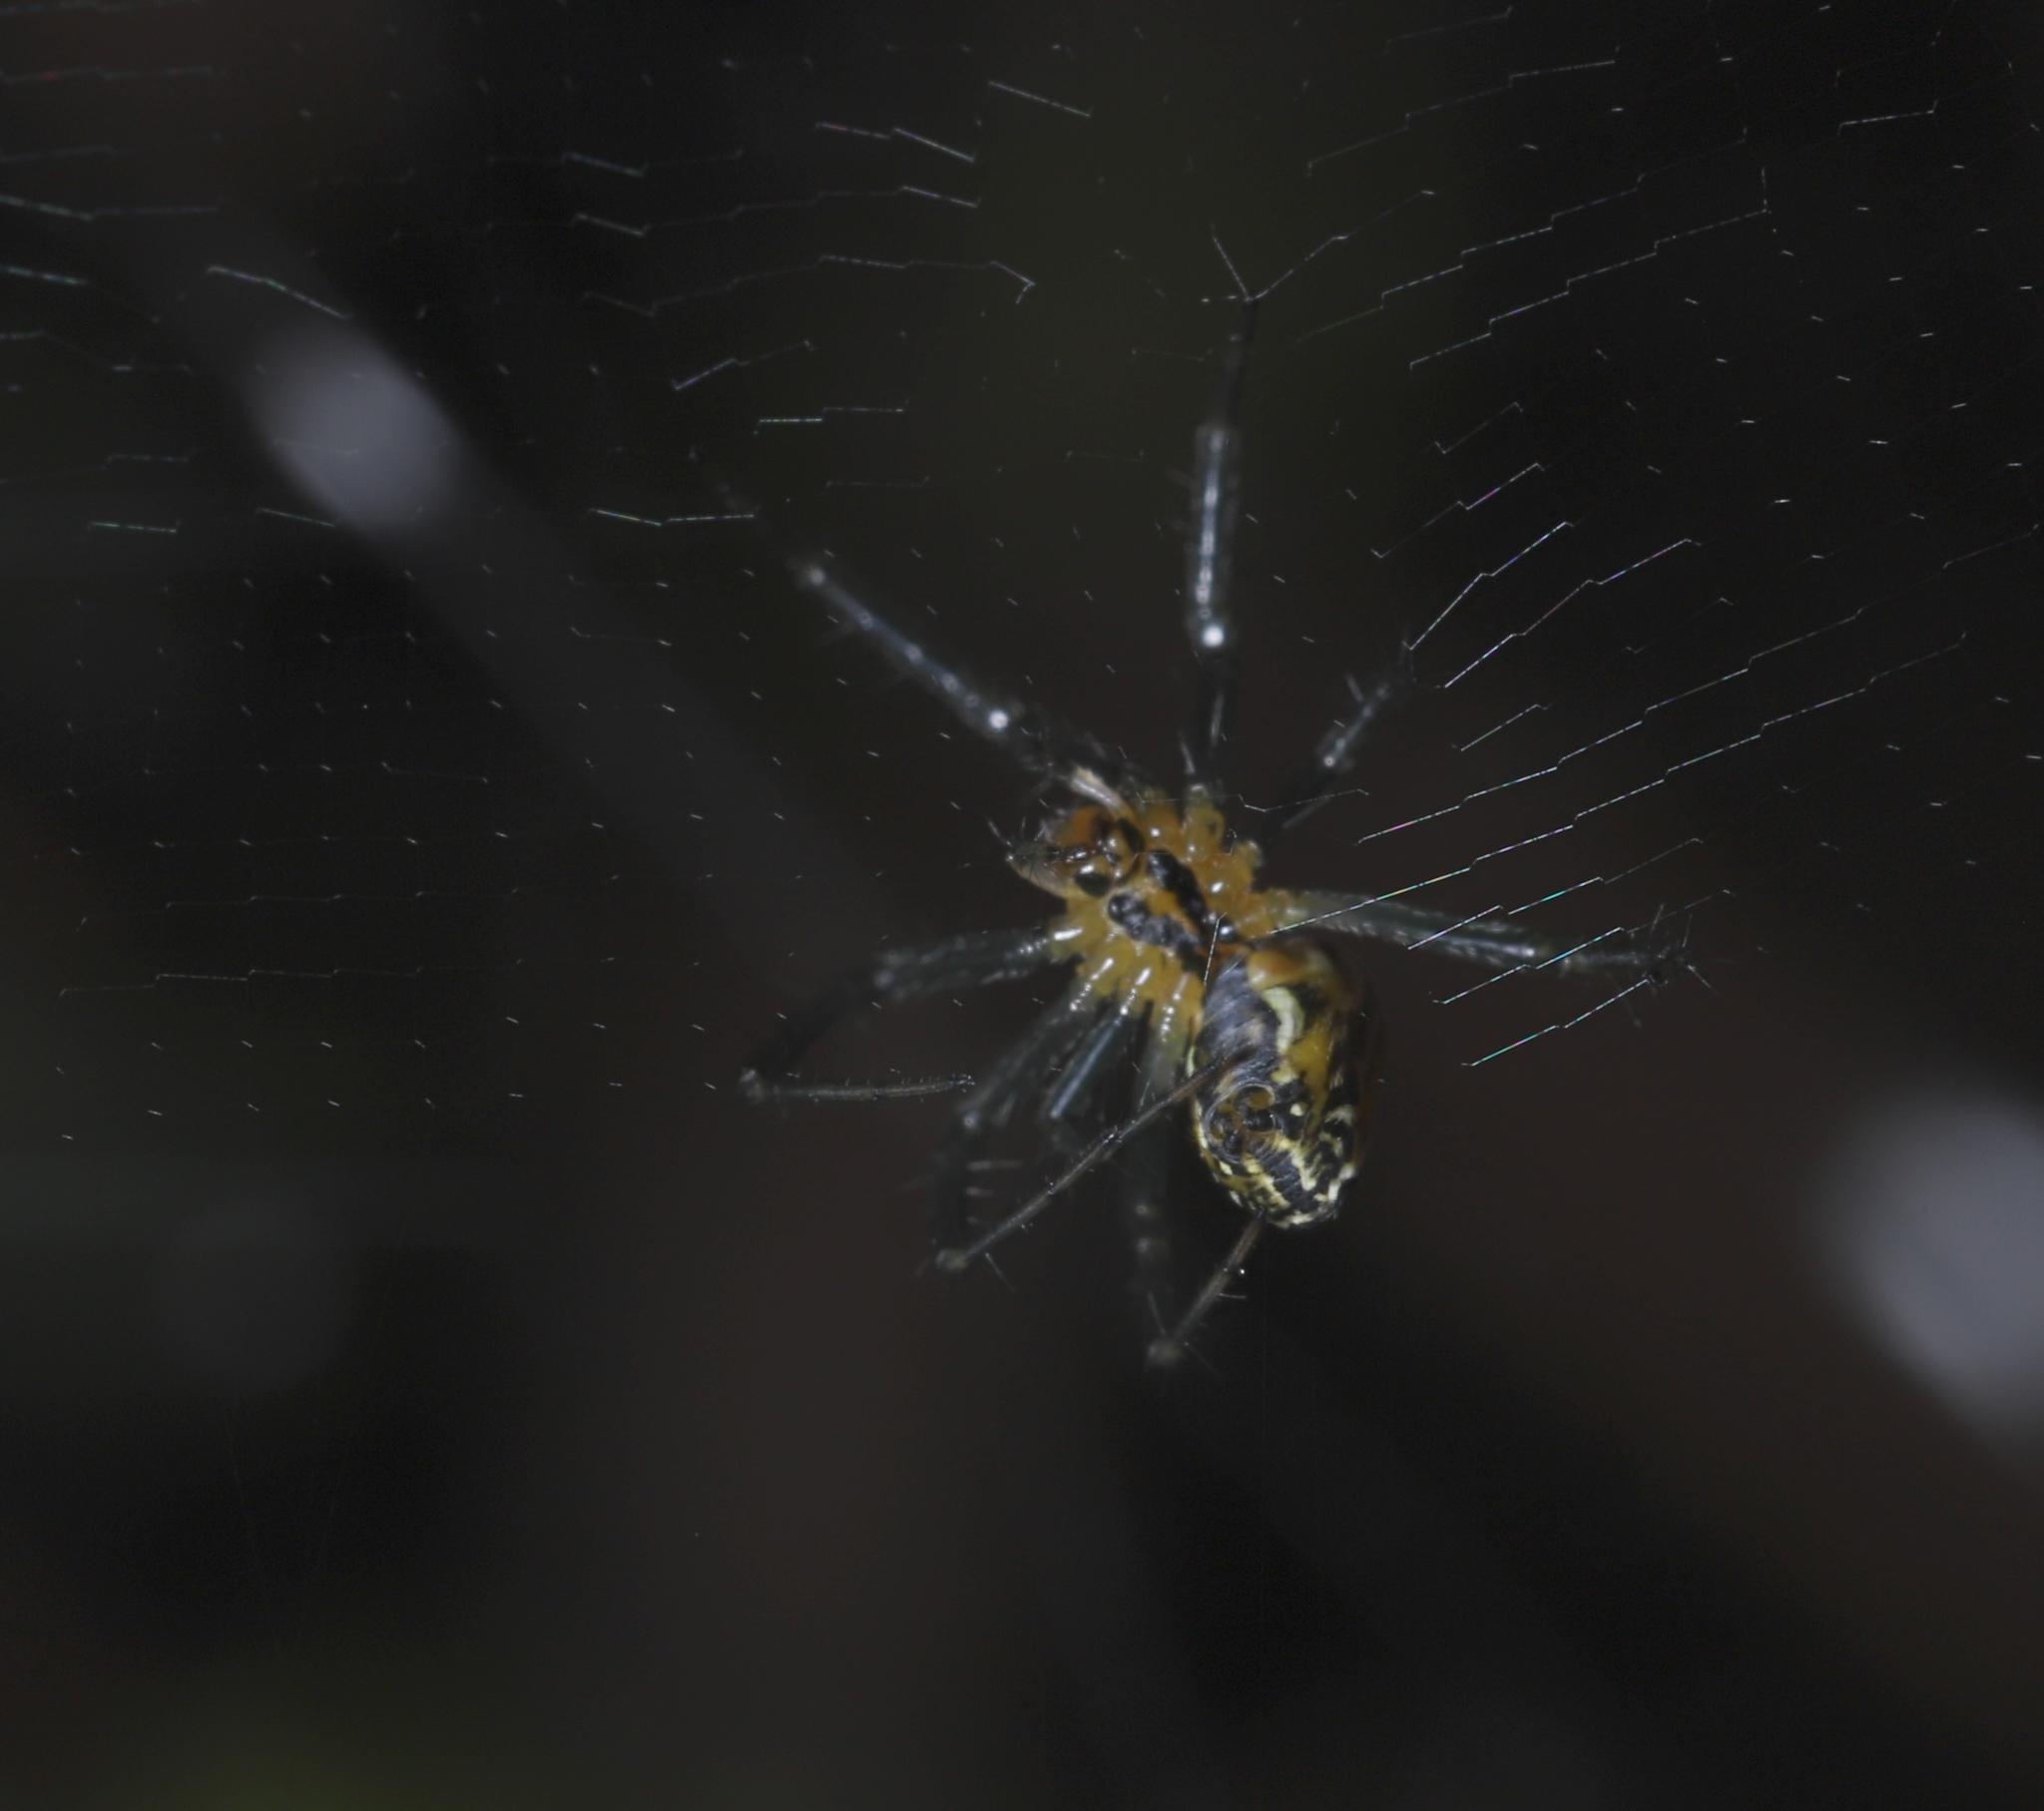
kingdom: Animalia
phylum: Arthropoda
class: Arachnida
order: Araneae
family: Araneidae
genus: Mecynogea
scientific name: Mecynogea lemniscata
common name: Orb weavers
